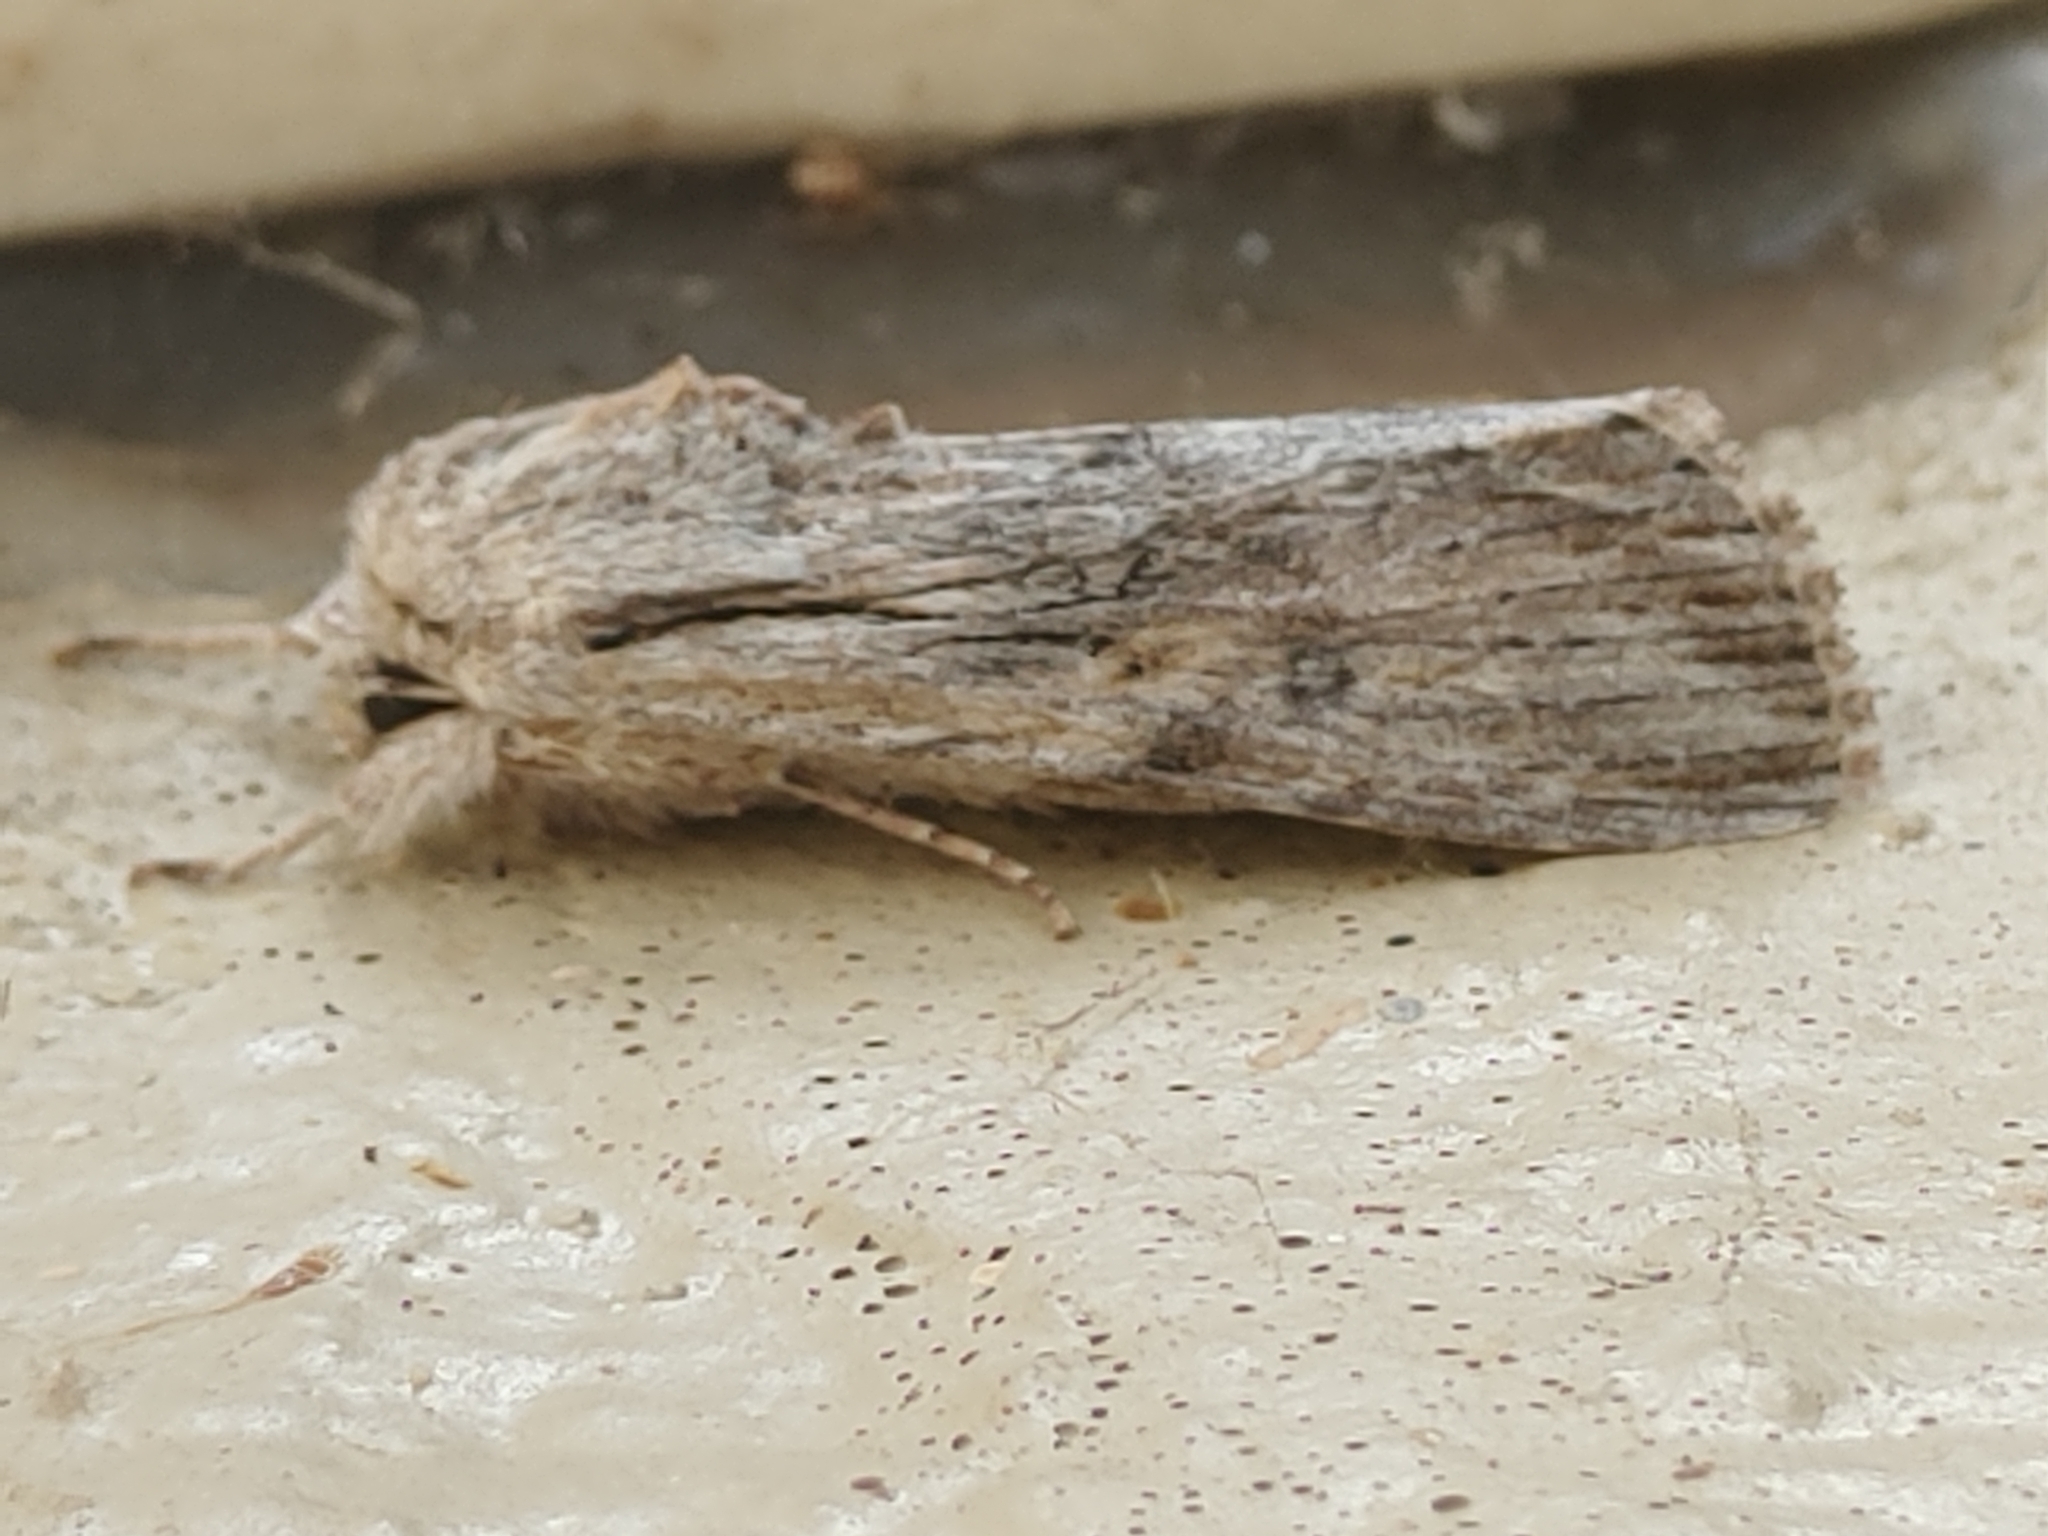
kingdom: Animalia
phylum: Arthropoda
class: Insecta
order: Lepidoptera
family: Noctuidae
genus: Spodoptera
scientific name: Spodoptera albula
